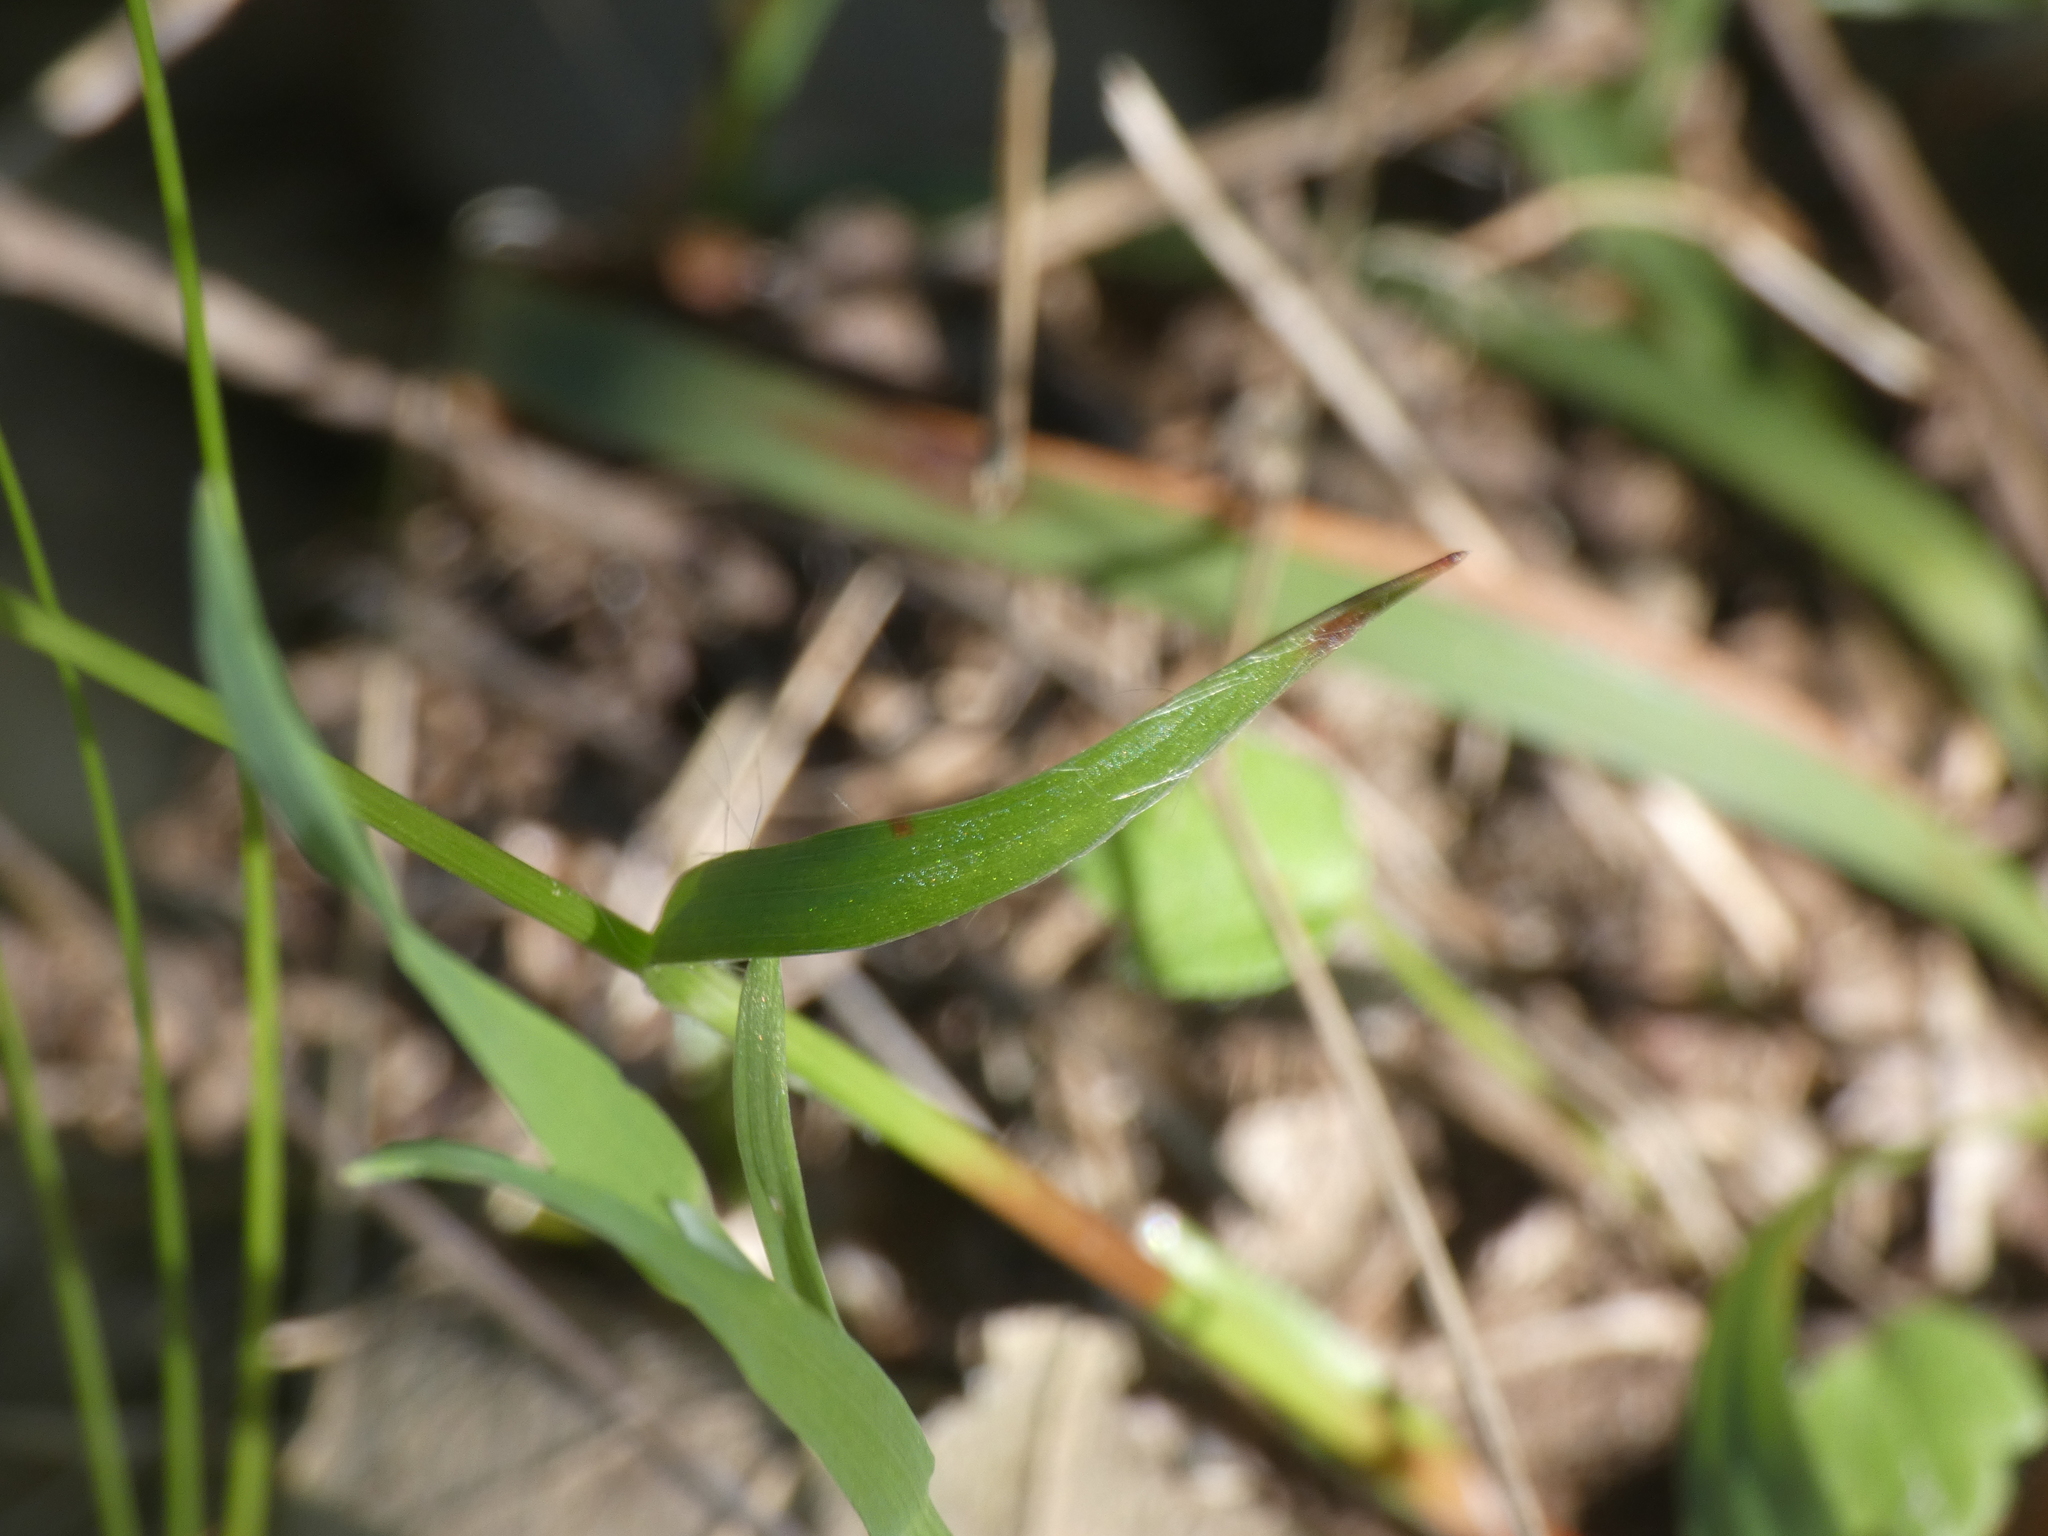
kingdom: Plantae
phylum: Tracheophyta
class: Liliopsida
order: Poales
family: Juncaceae
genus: Luzula
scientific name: Luzula forsteri
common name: Southern wood-rush
